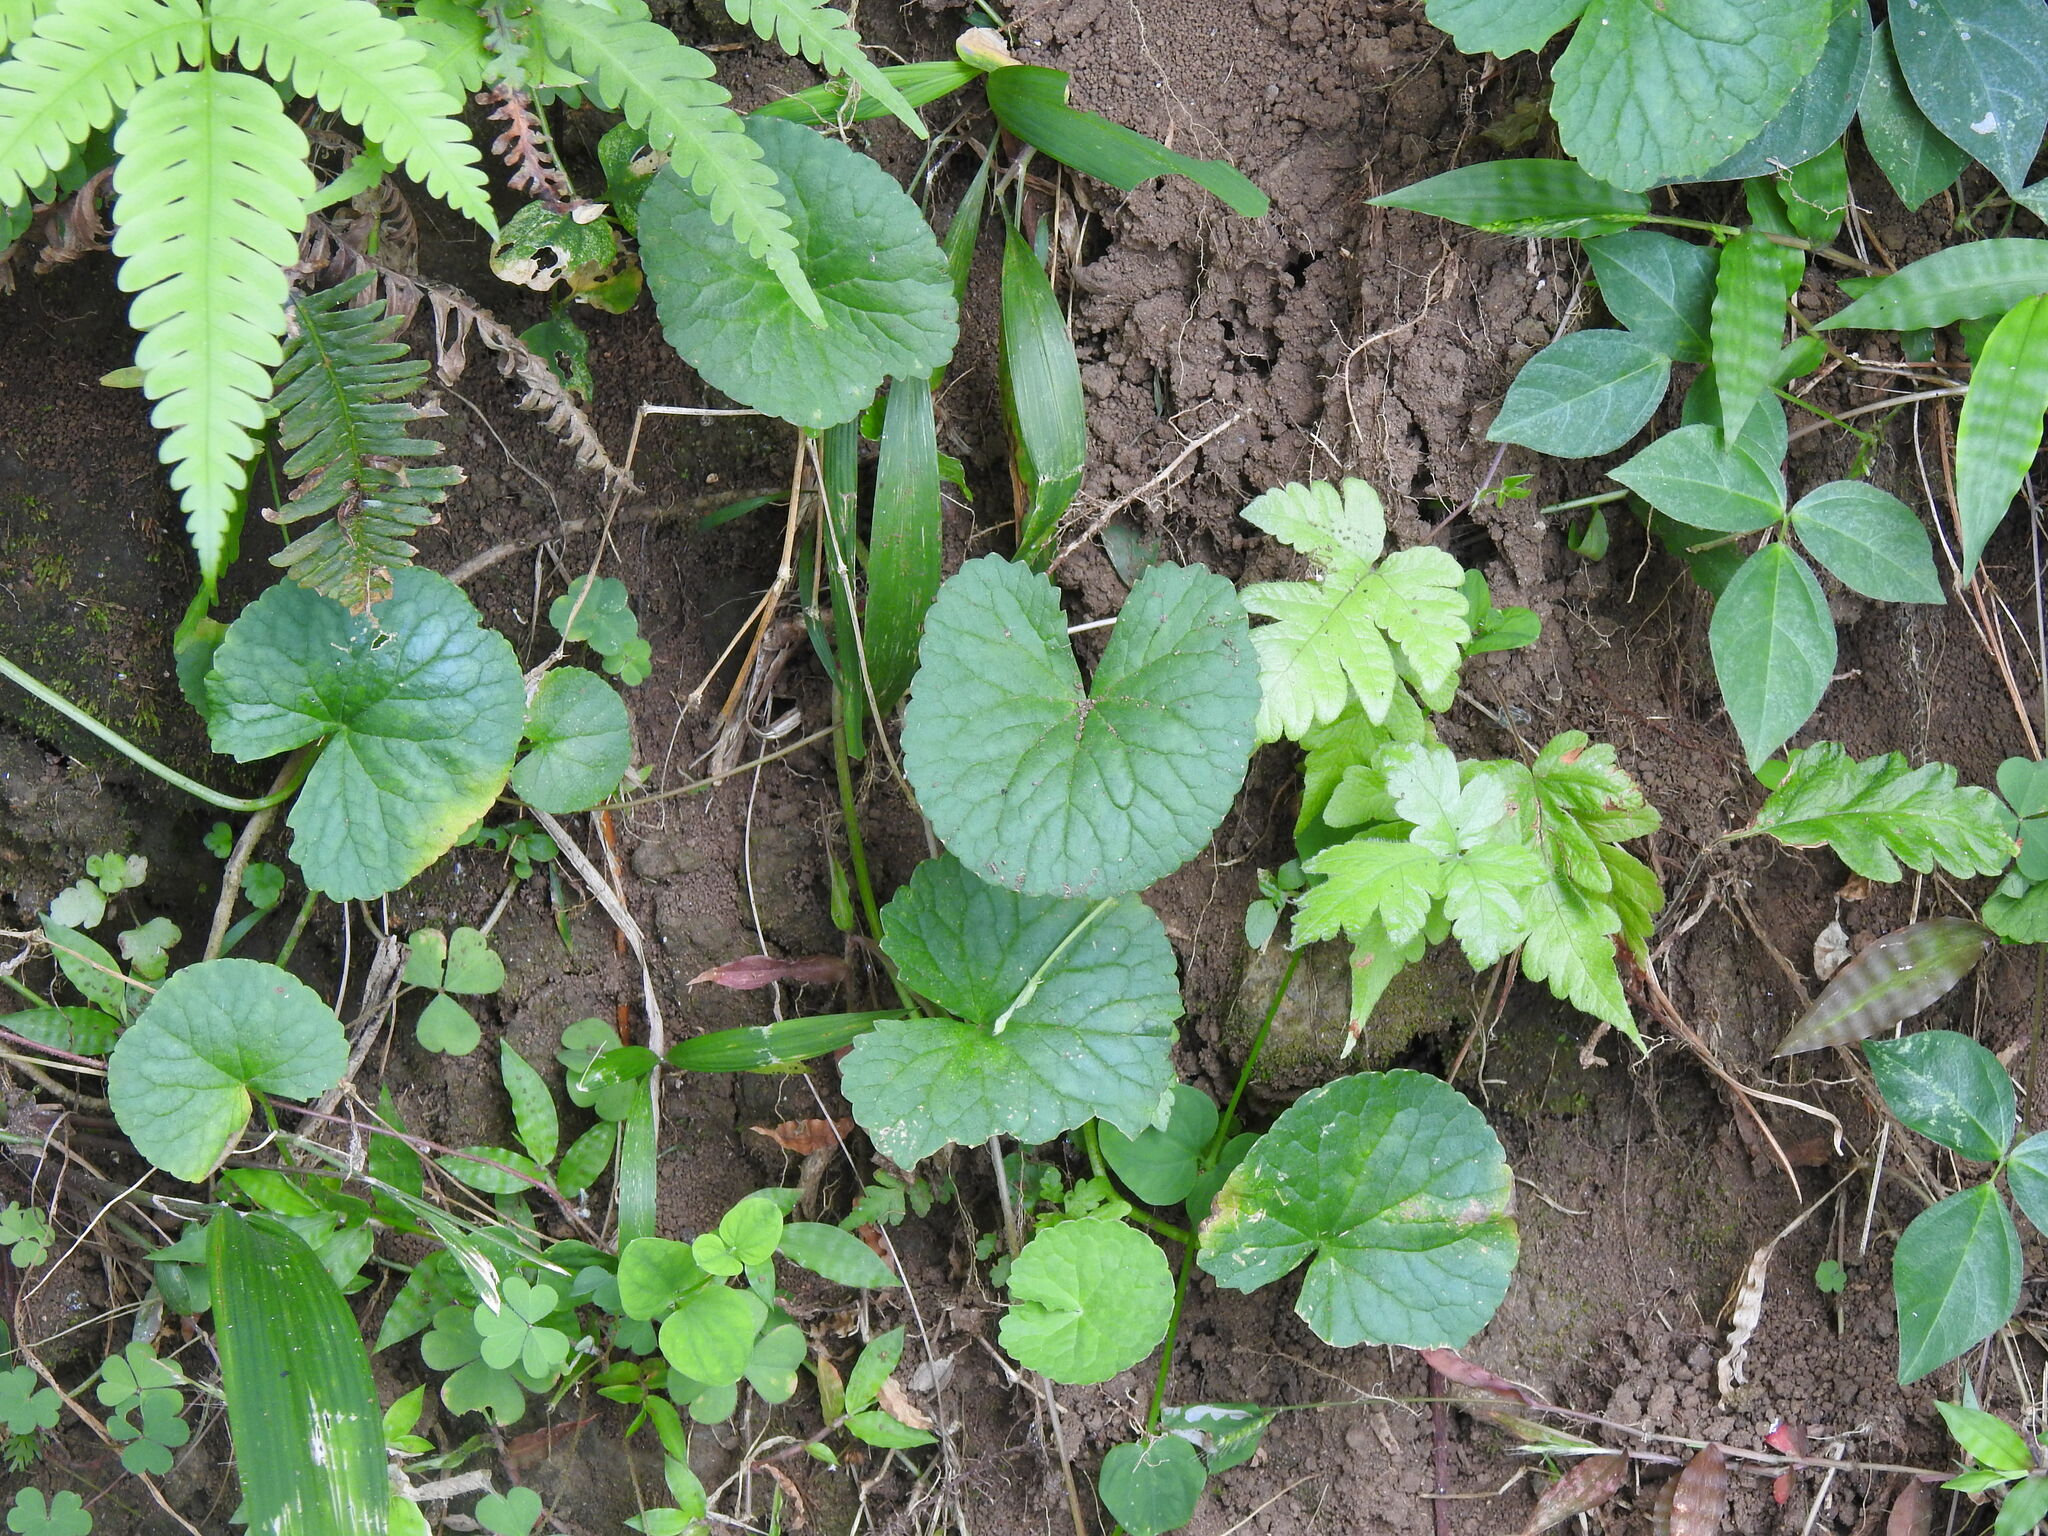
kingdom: Plantae
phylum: Tracheophyta
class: Magnoliopsida
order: Apiales
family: Apiaceae
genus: Centella
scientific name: Centella asiatica
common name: Spadeleaf
